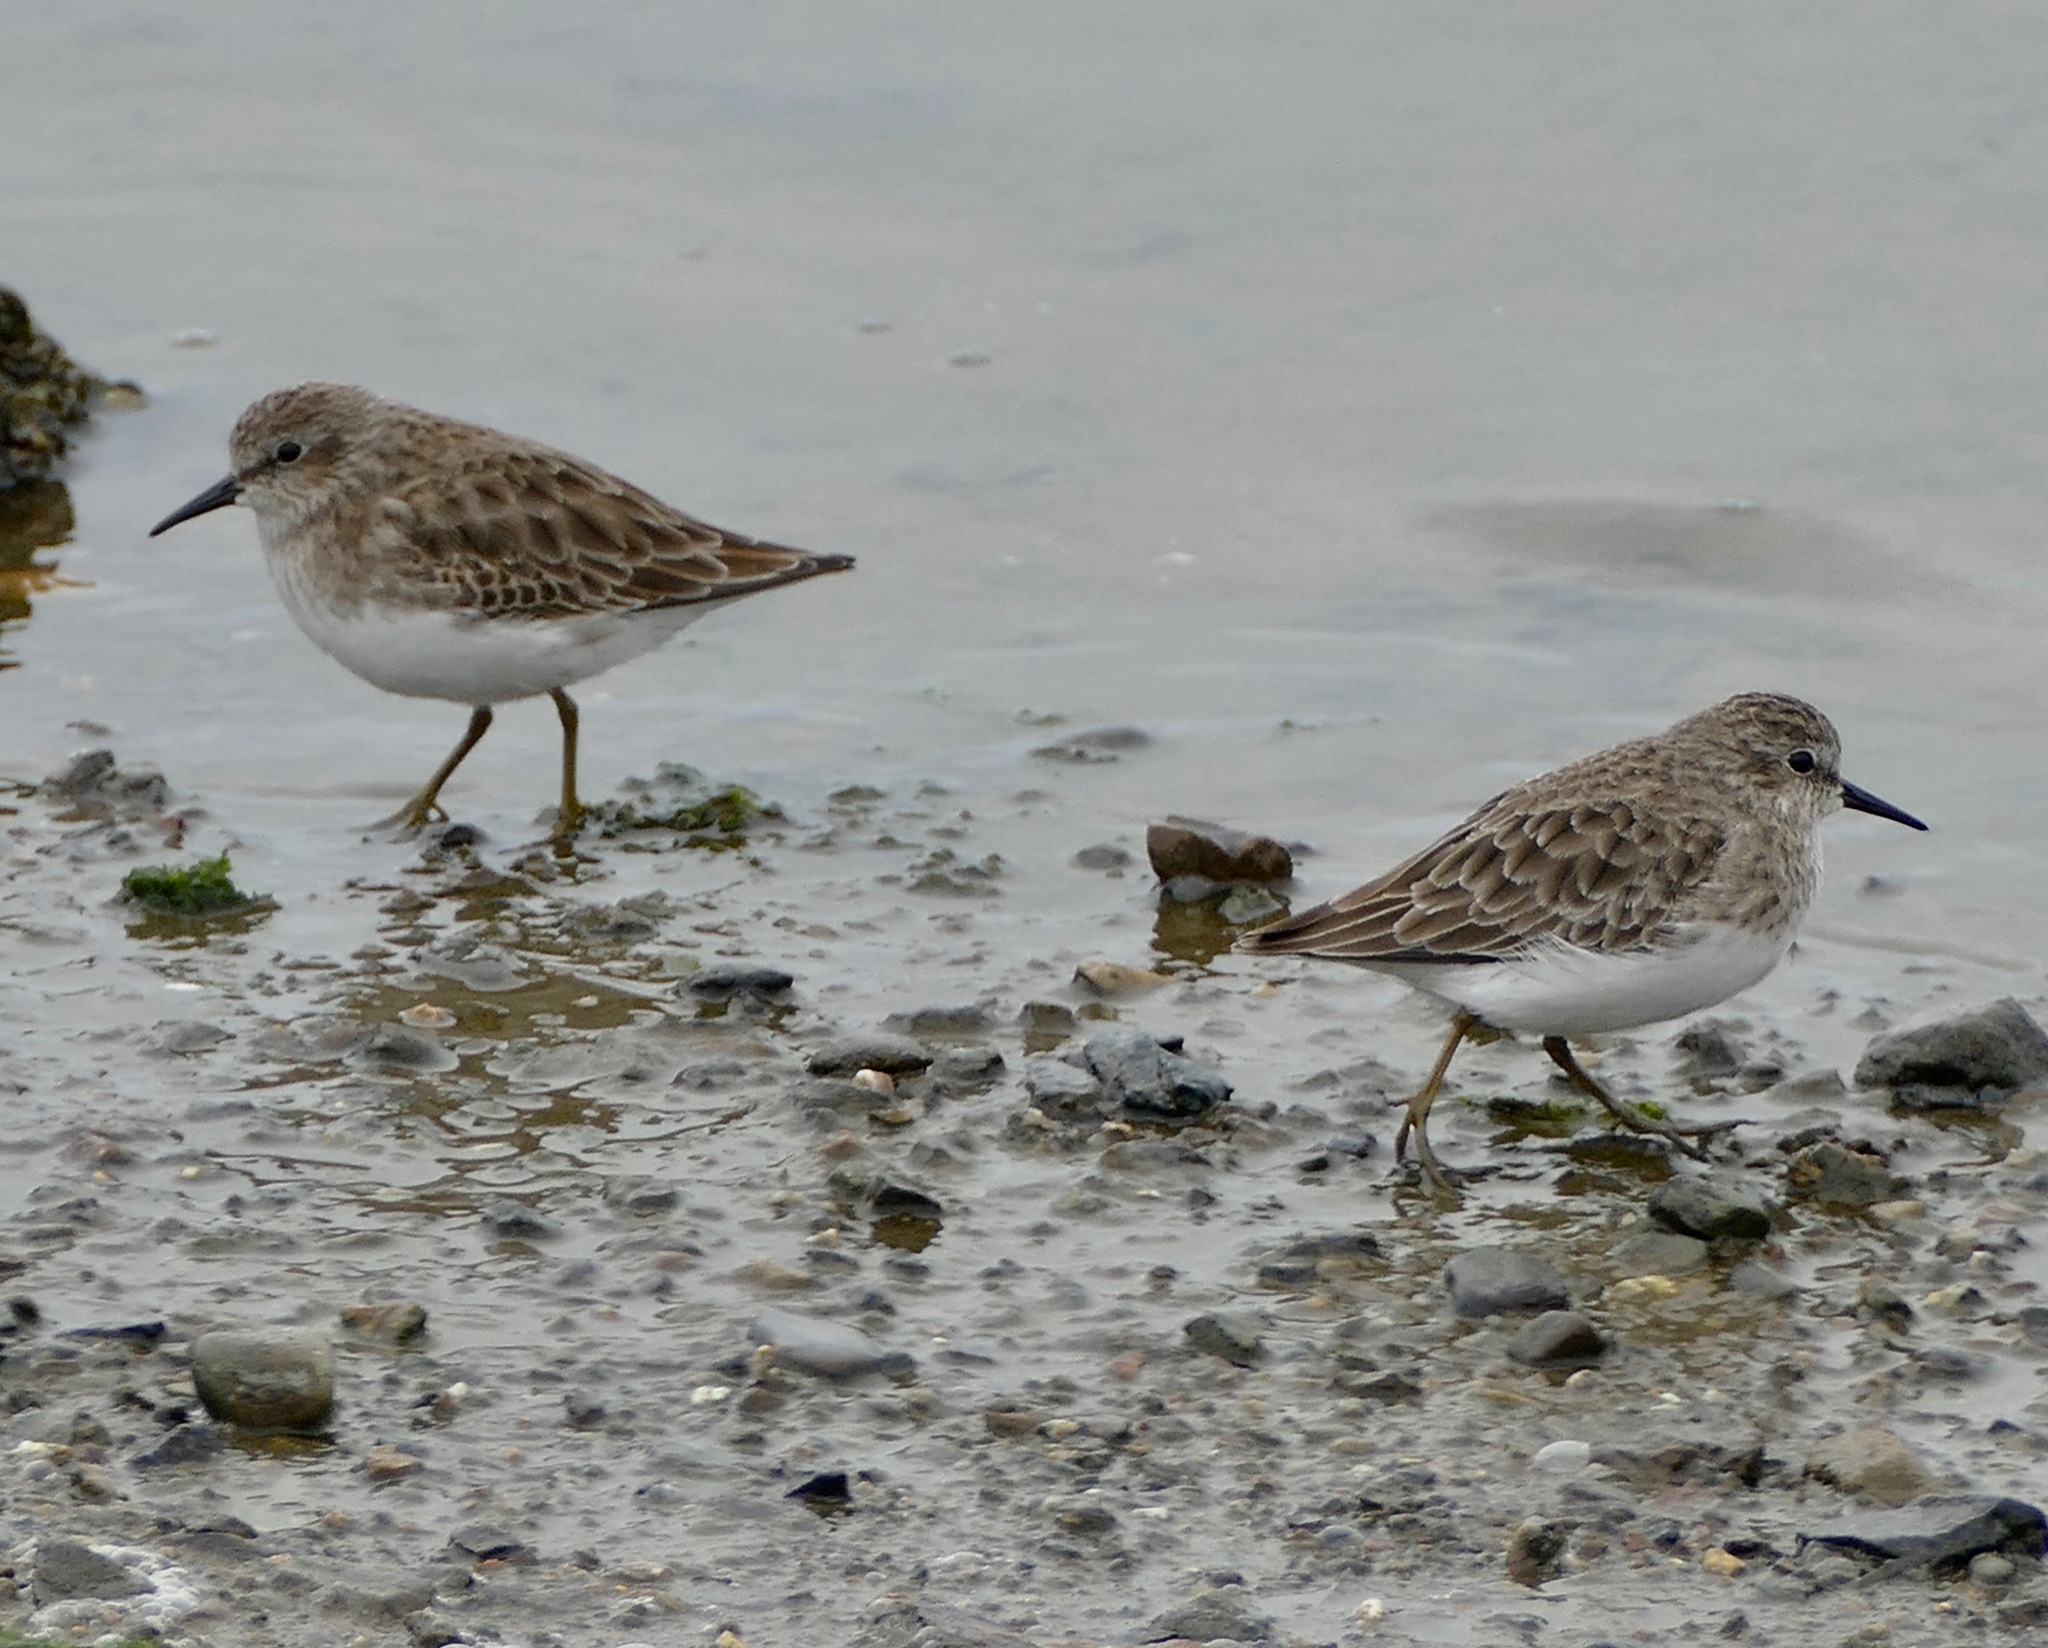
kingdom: Animalia
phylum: Chordata
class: Aves
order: Charadriiformes
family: Scolopacidae
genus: Calidris
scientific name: Calidris minutilla
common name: Least sandpiper
